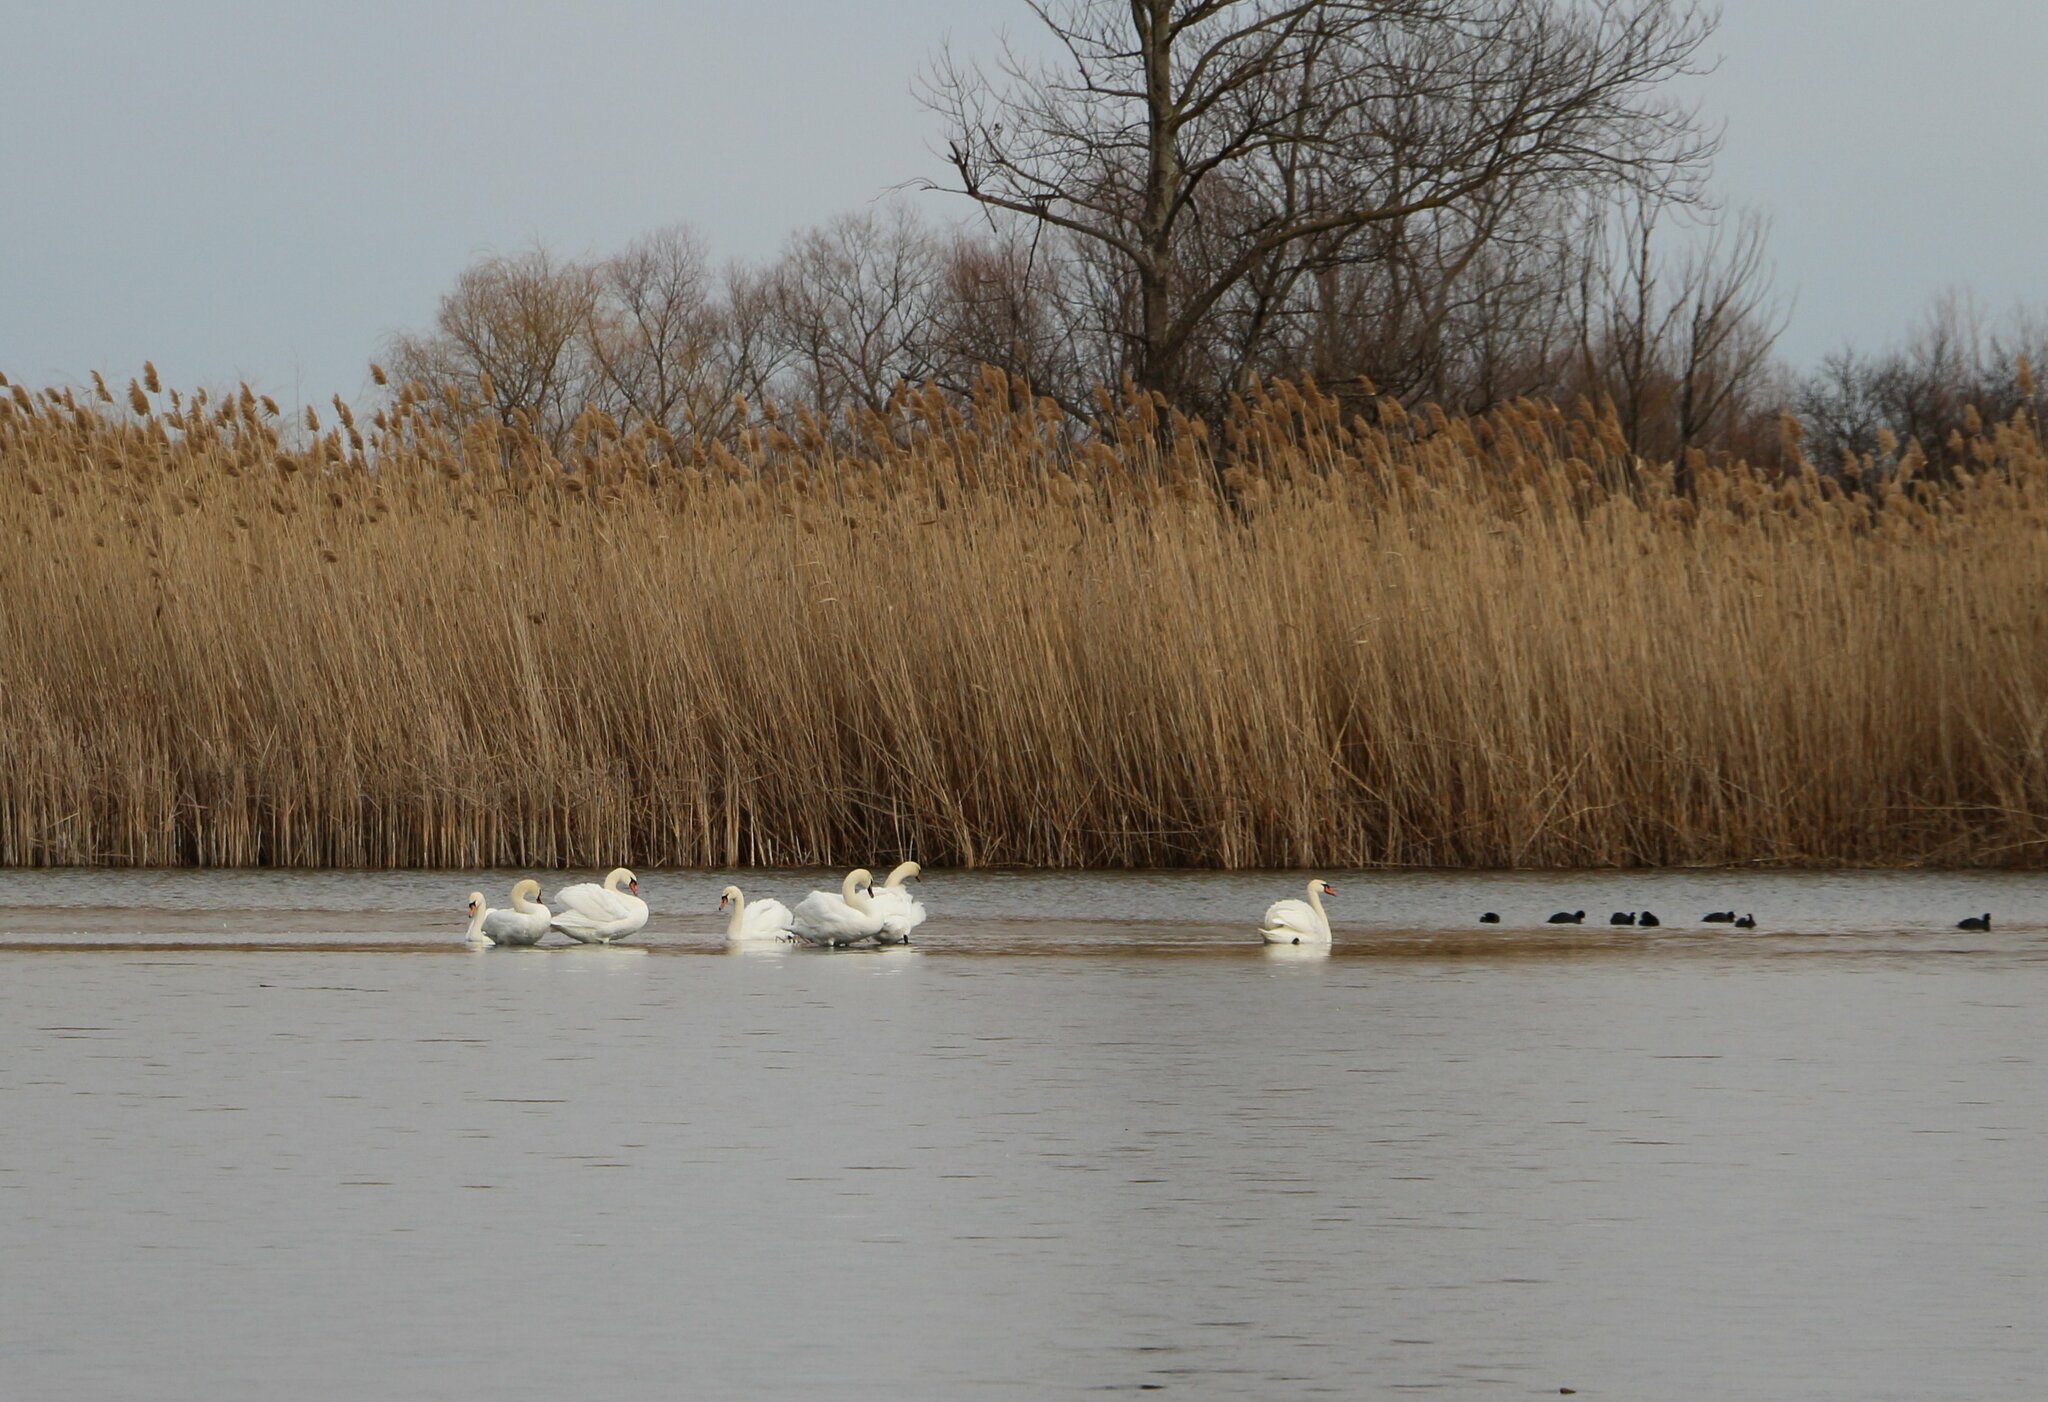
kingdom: Animalia
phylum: Chordata
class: Aves
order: Anseriformes
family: Anatidae
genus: Cygnus
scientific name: Cygnus olor
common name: Mute swan
